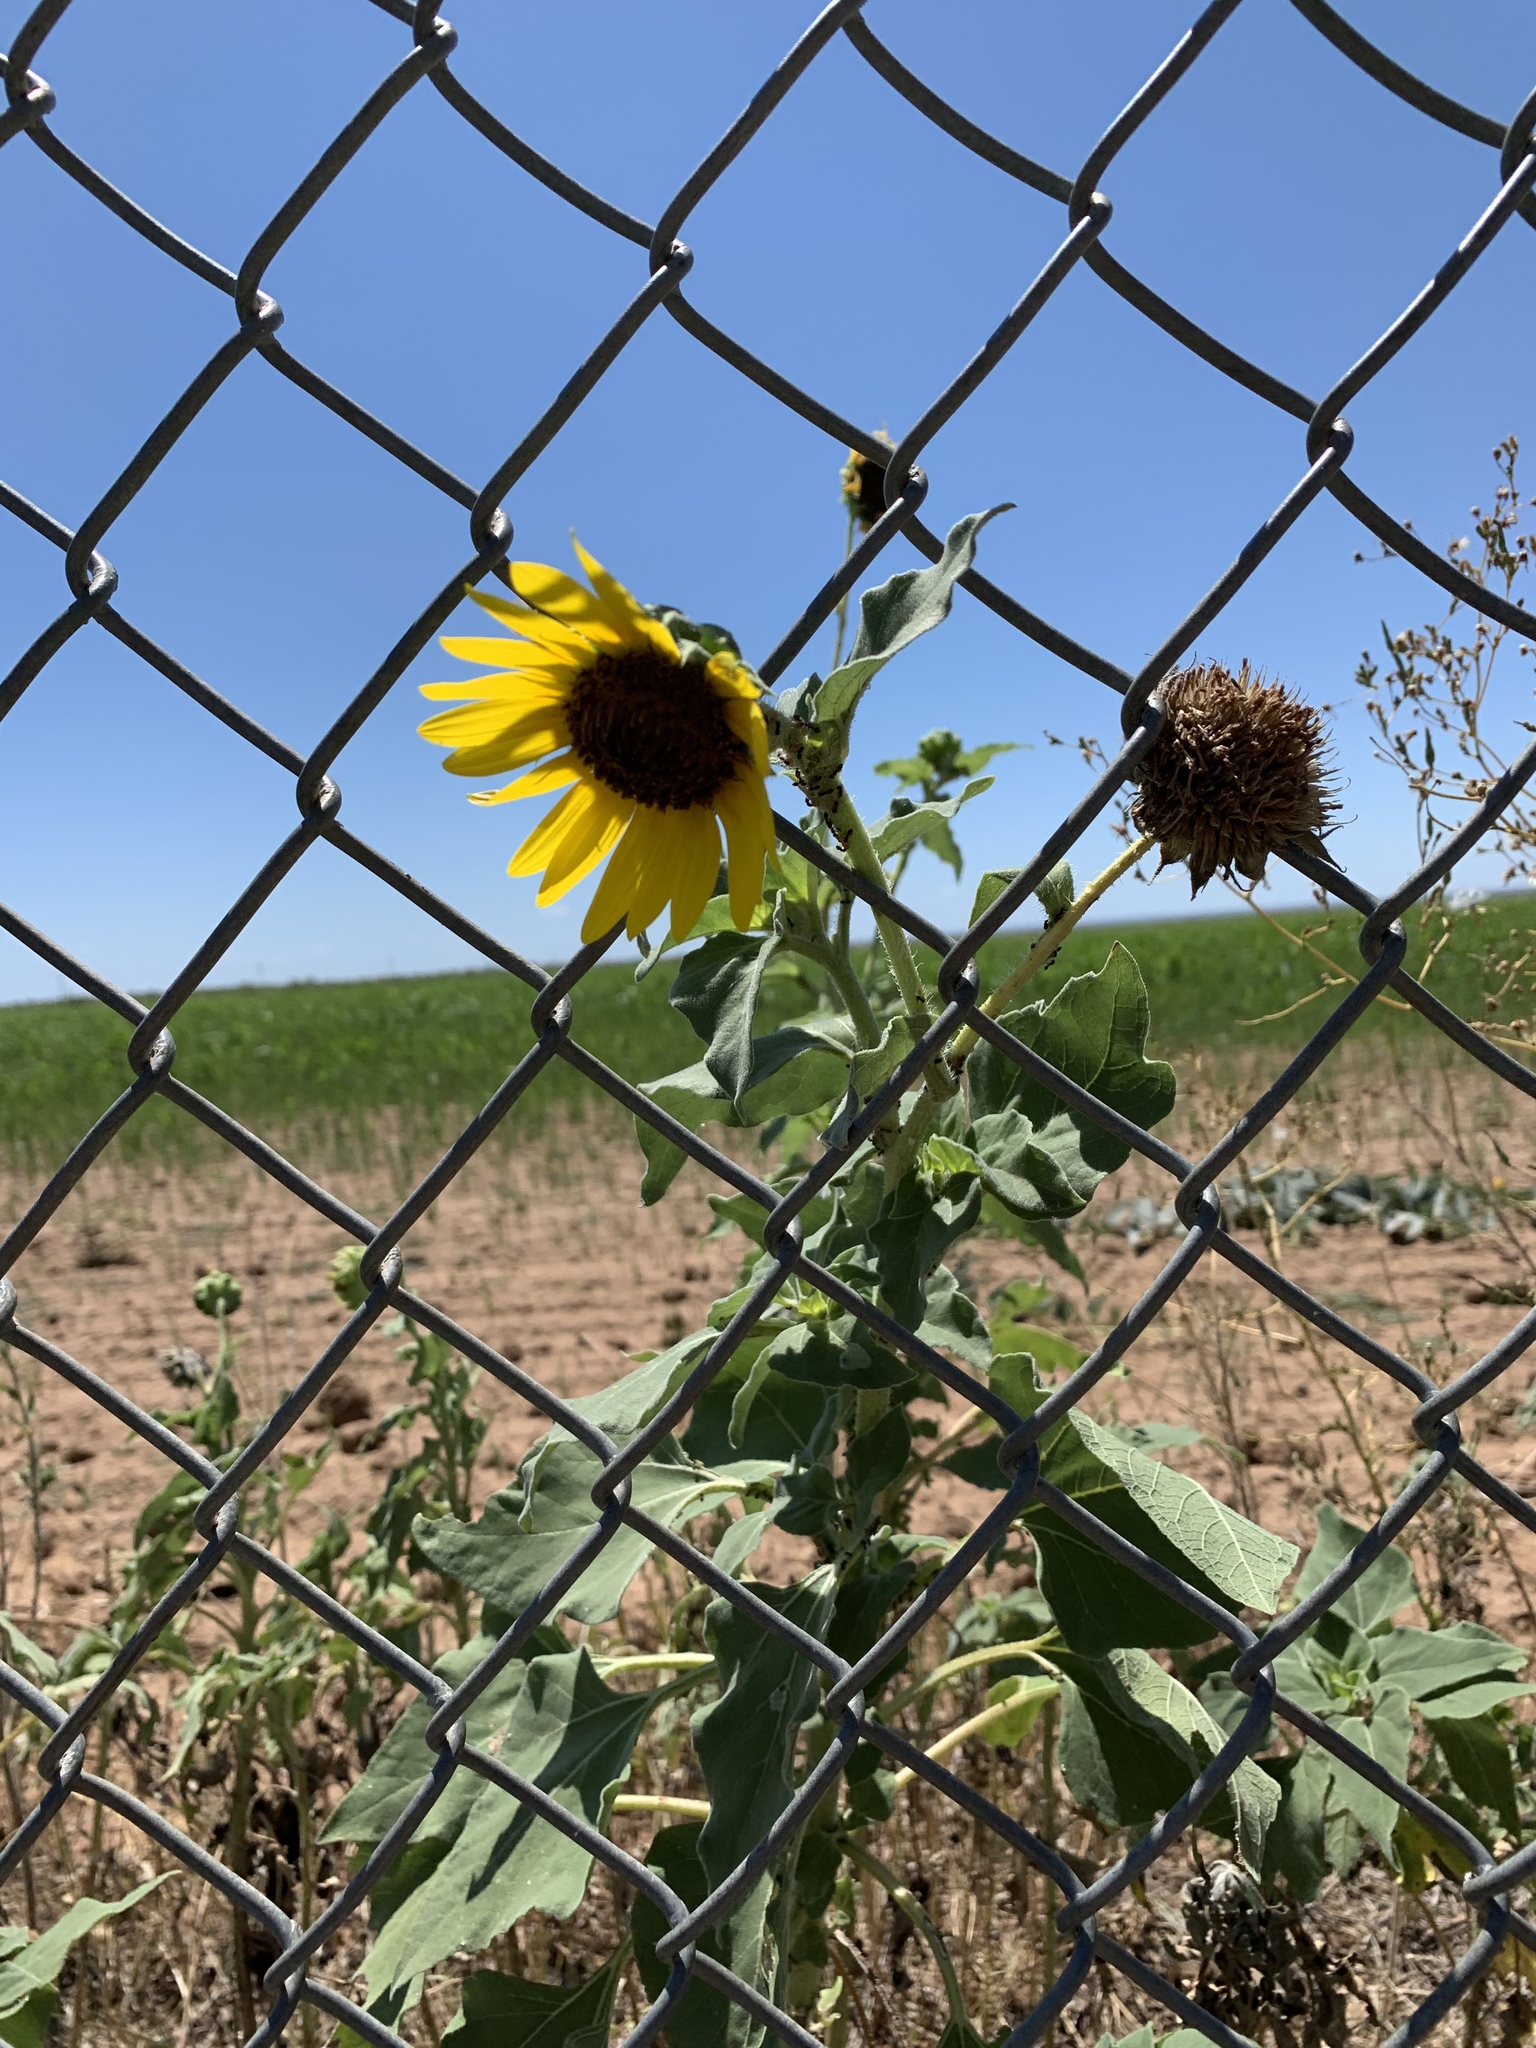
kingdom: Plantae
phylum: Tracheophyta
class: Magnoliopsida
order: Asterales
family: Asteraceae
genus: Helianthus
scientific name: Helianthus annuus
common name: Sunflower
